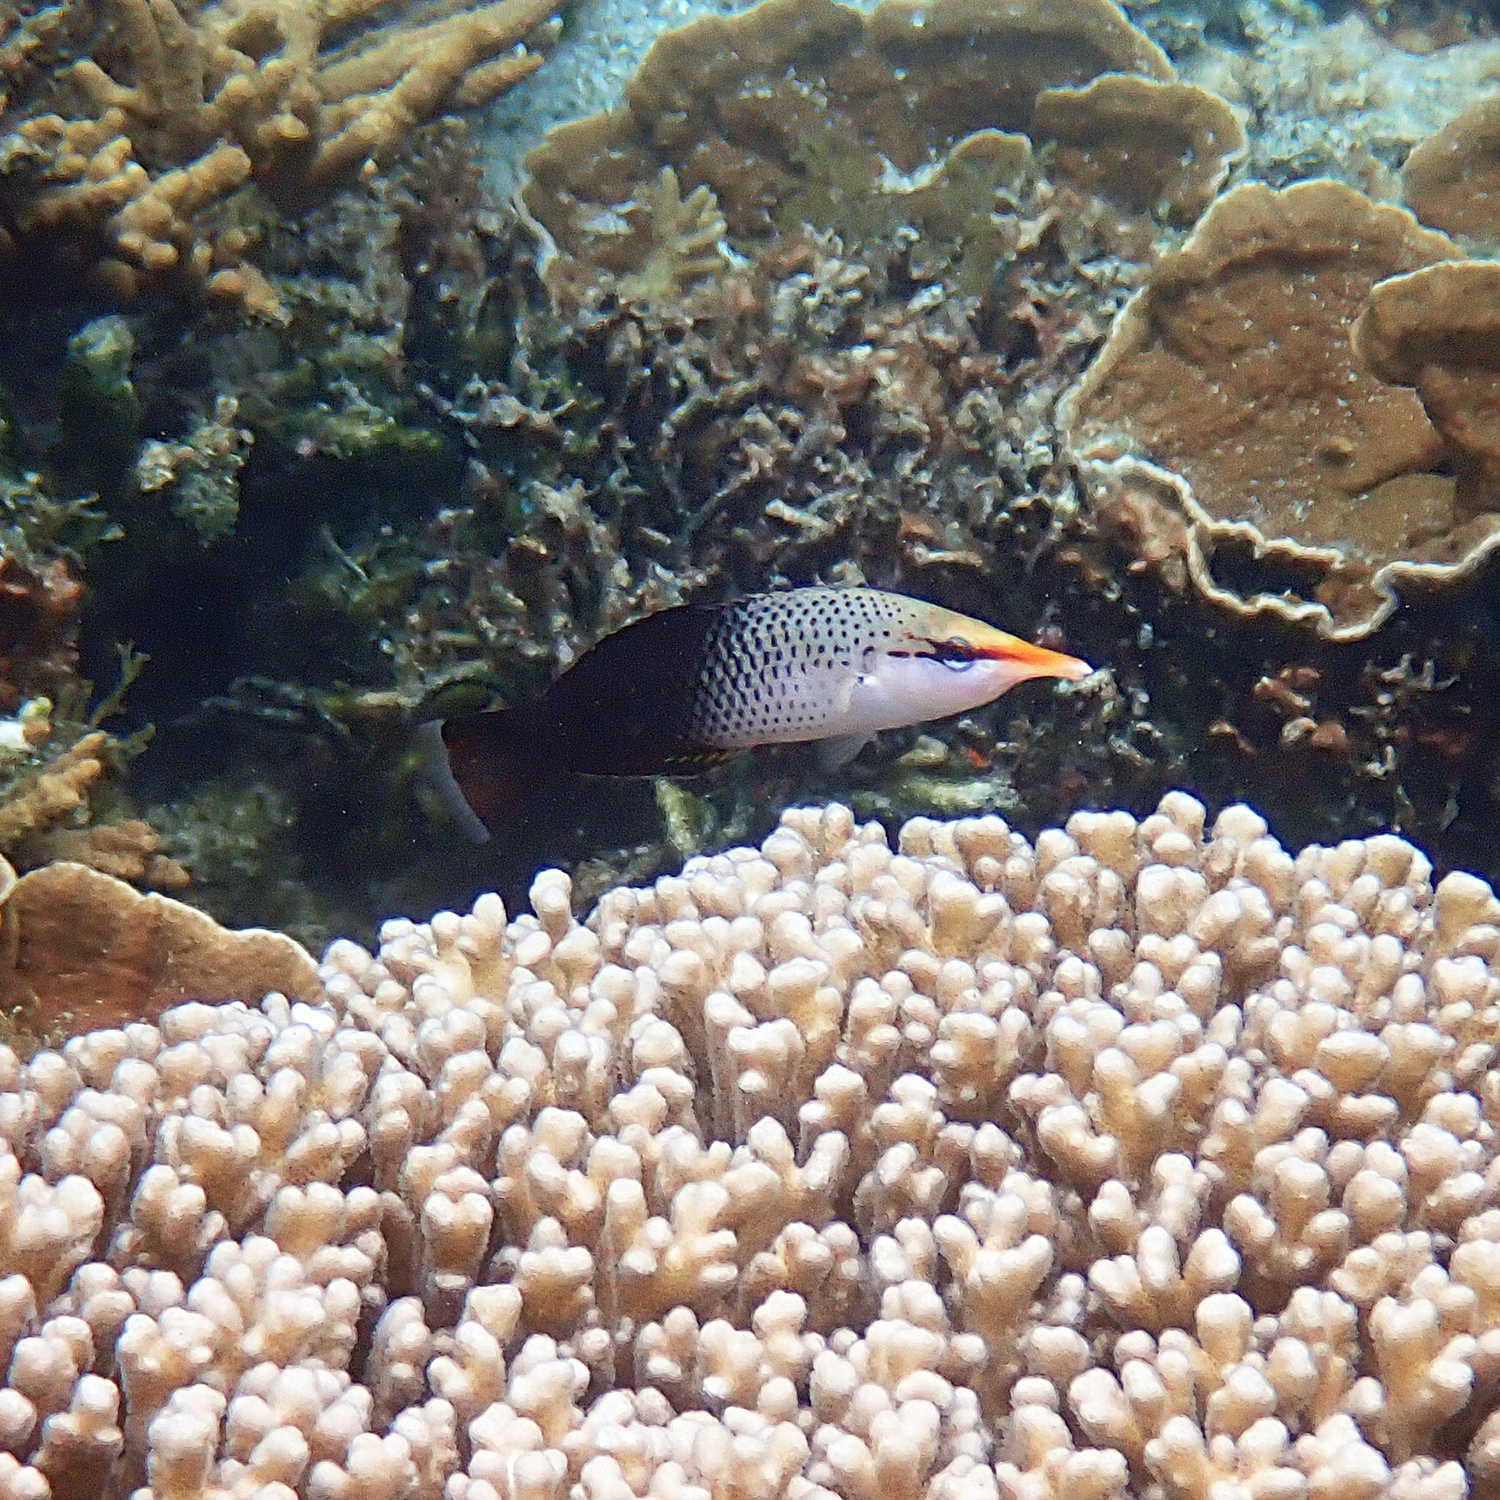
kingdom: Animalia
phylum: Chordata
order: Perciformes
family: Labridae
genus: Gomphosus
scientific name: Gomphosus varius
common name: Bird wrasse
